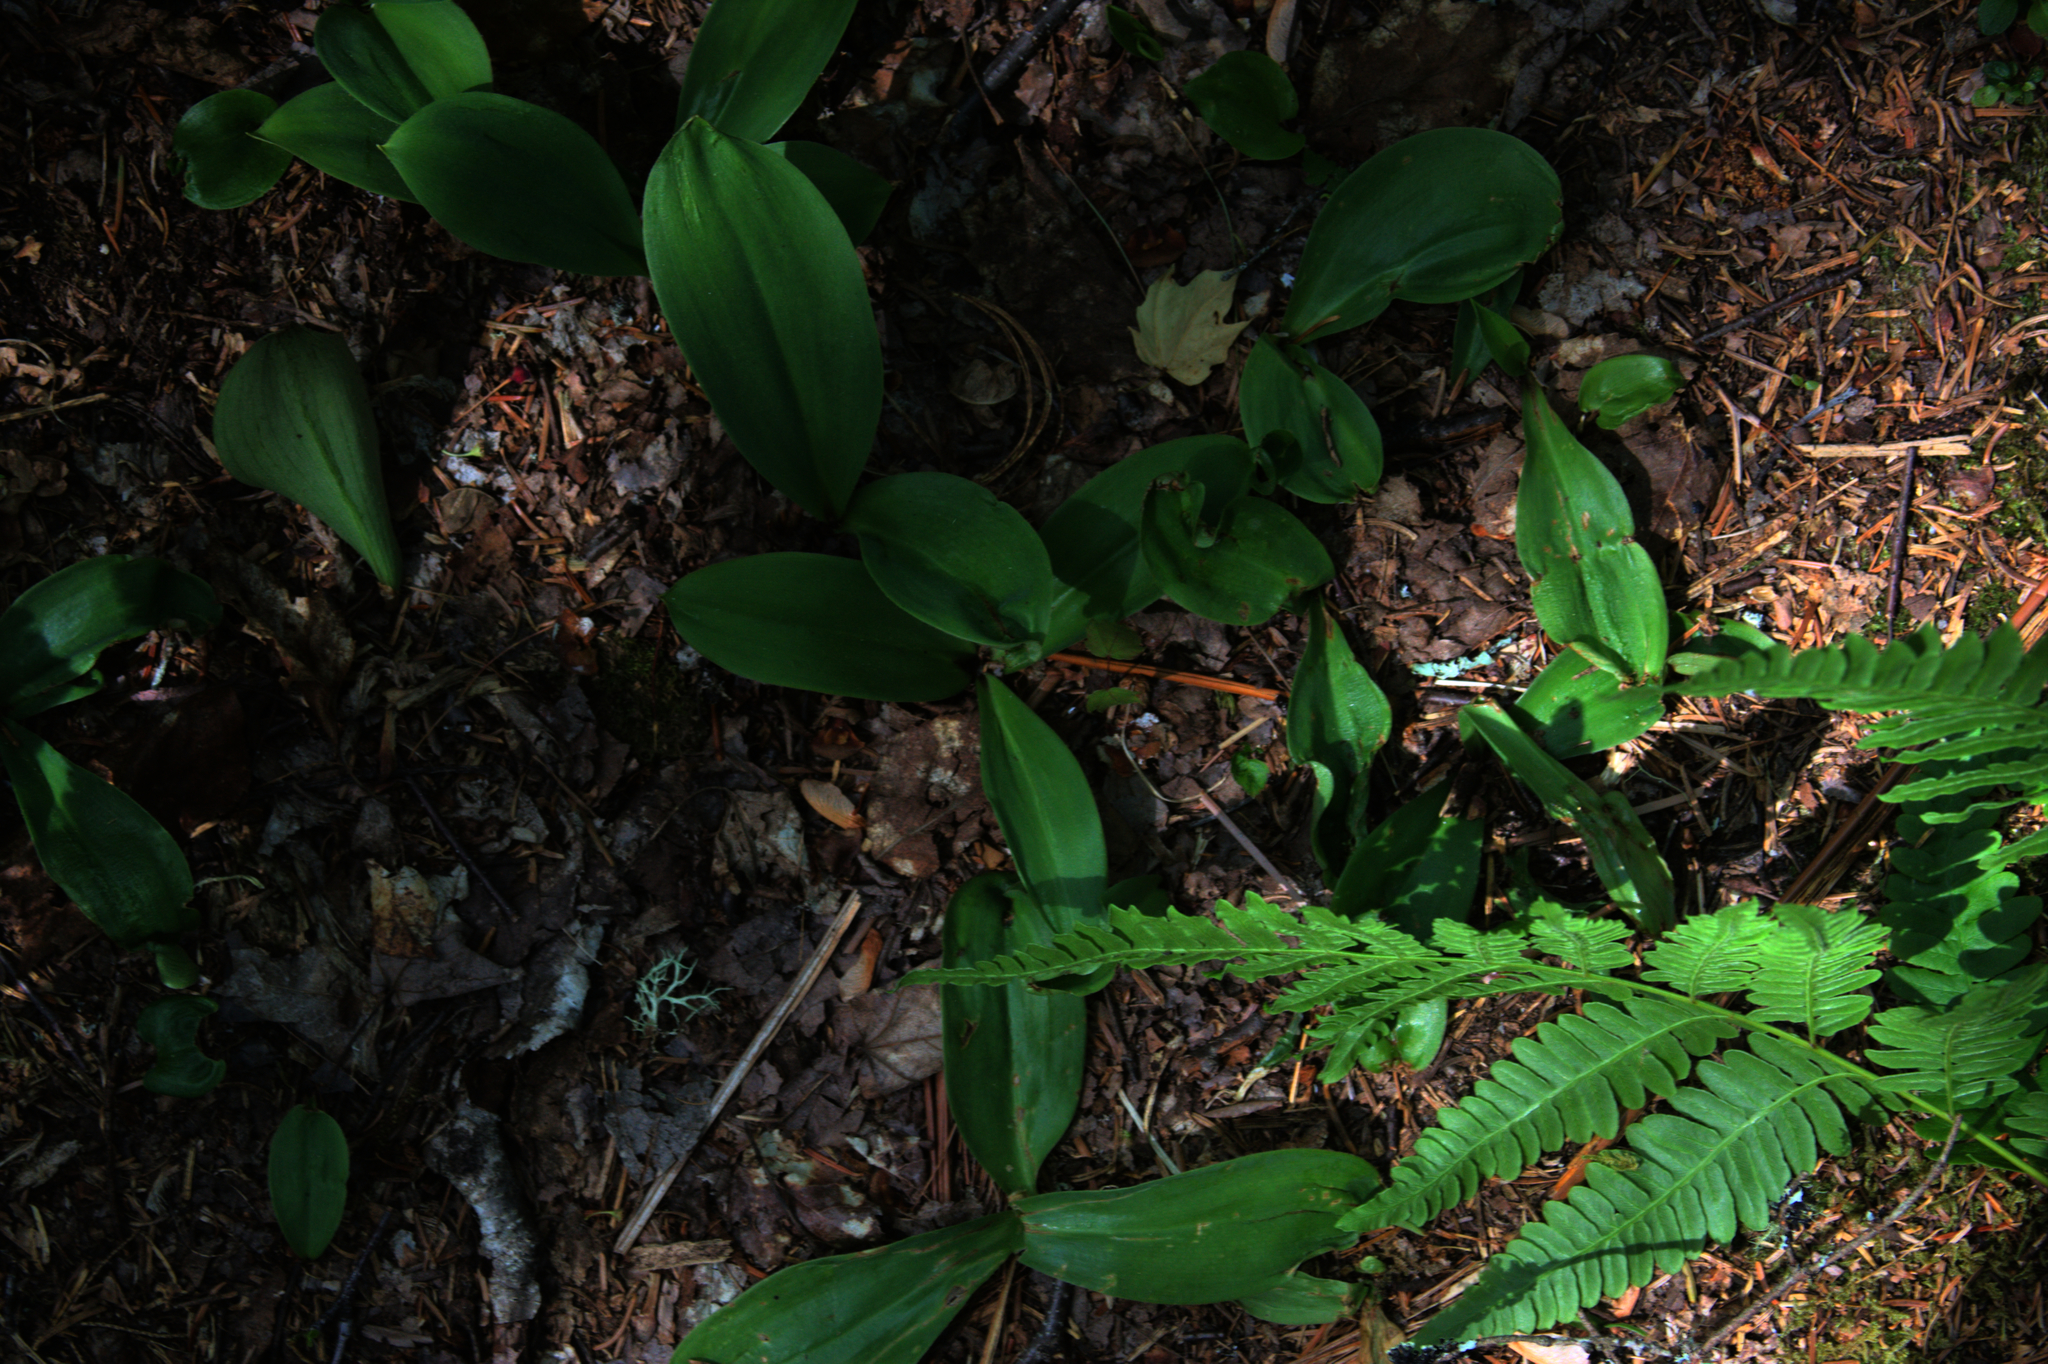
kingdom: Plantae
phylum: Tracheophyta
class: Liliopsida
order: Liliales
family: Liliaceae
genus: Clintonia
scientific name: Clintonia borealis
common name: Yellow clintonia
